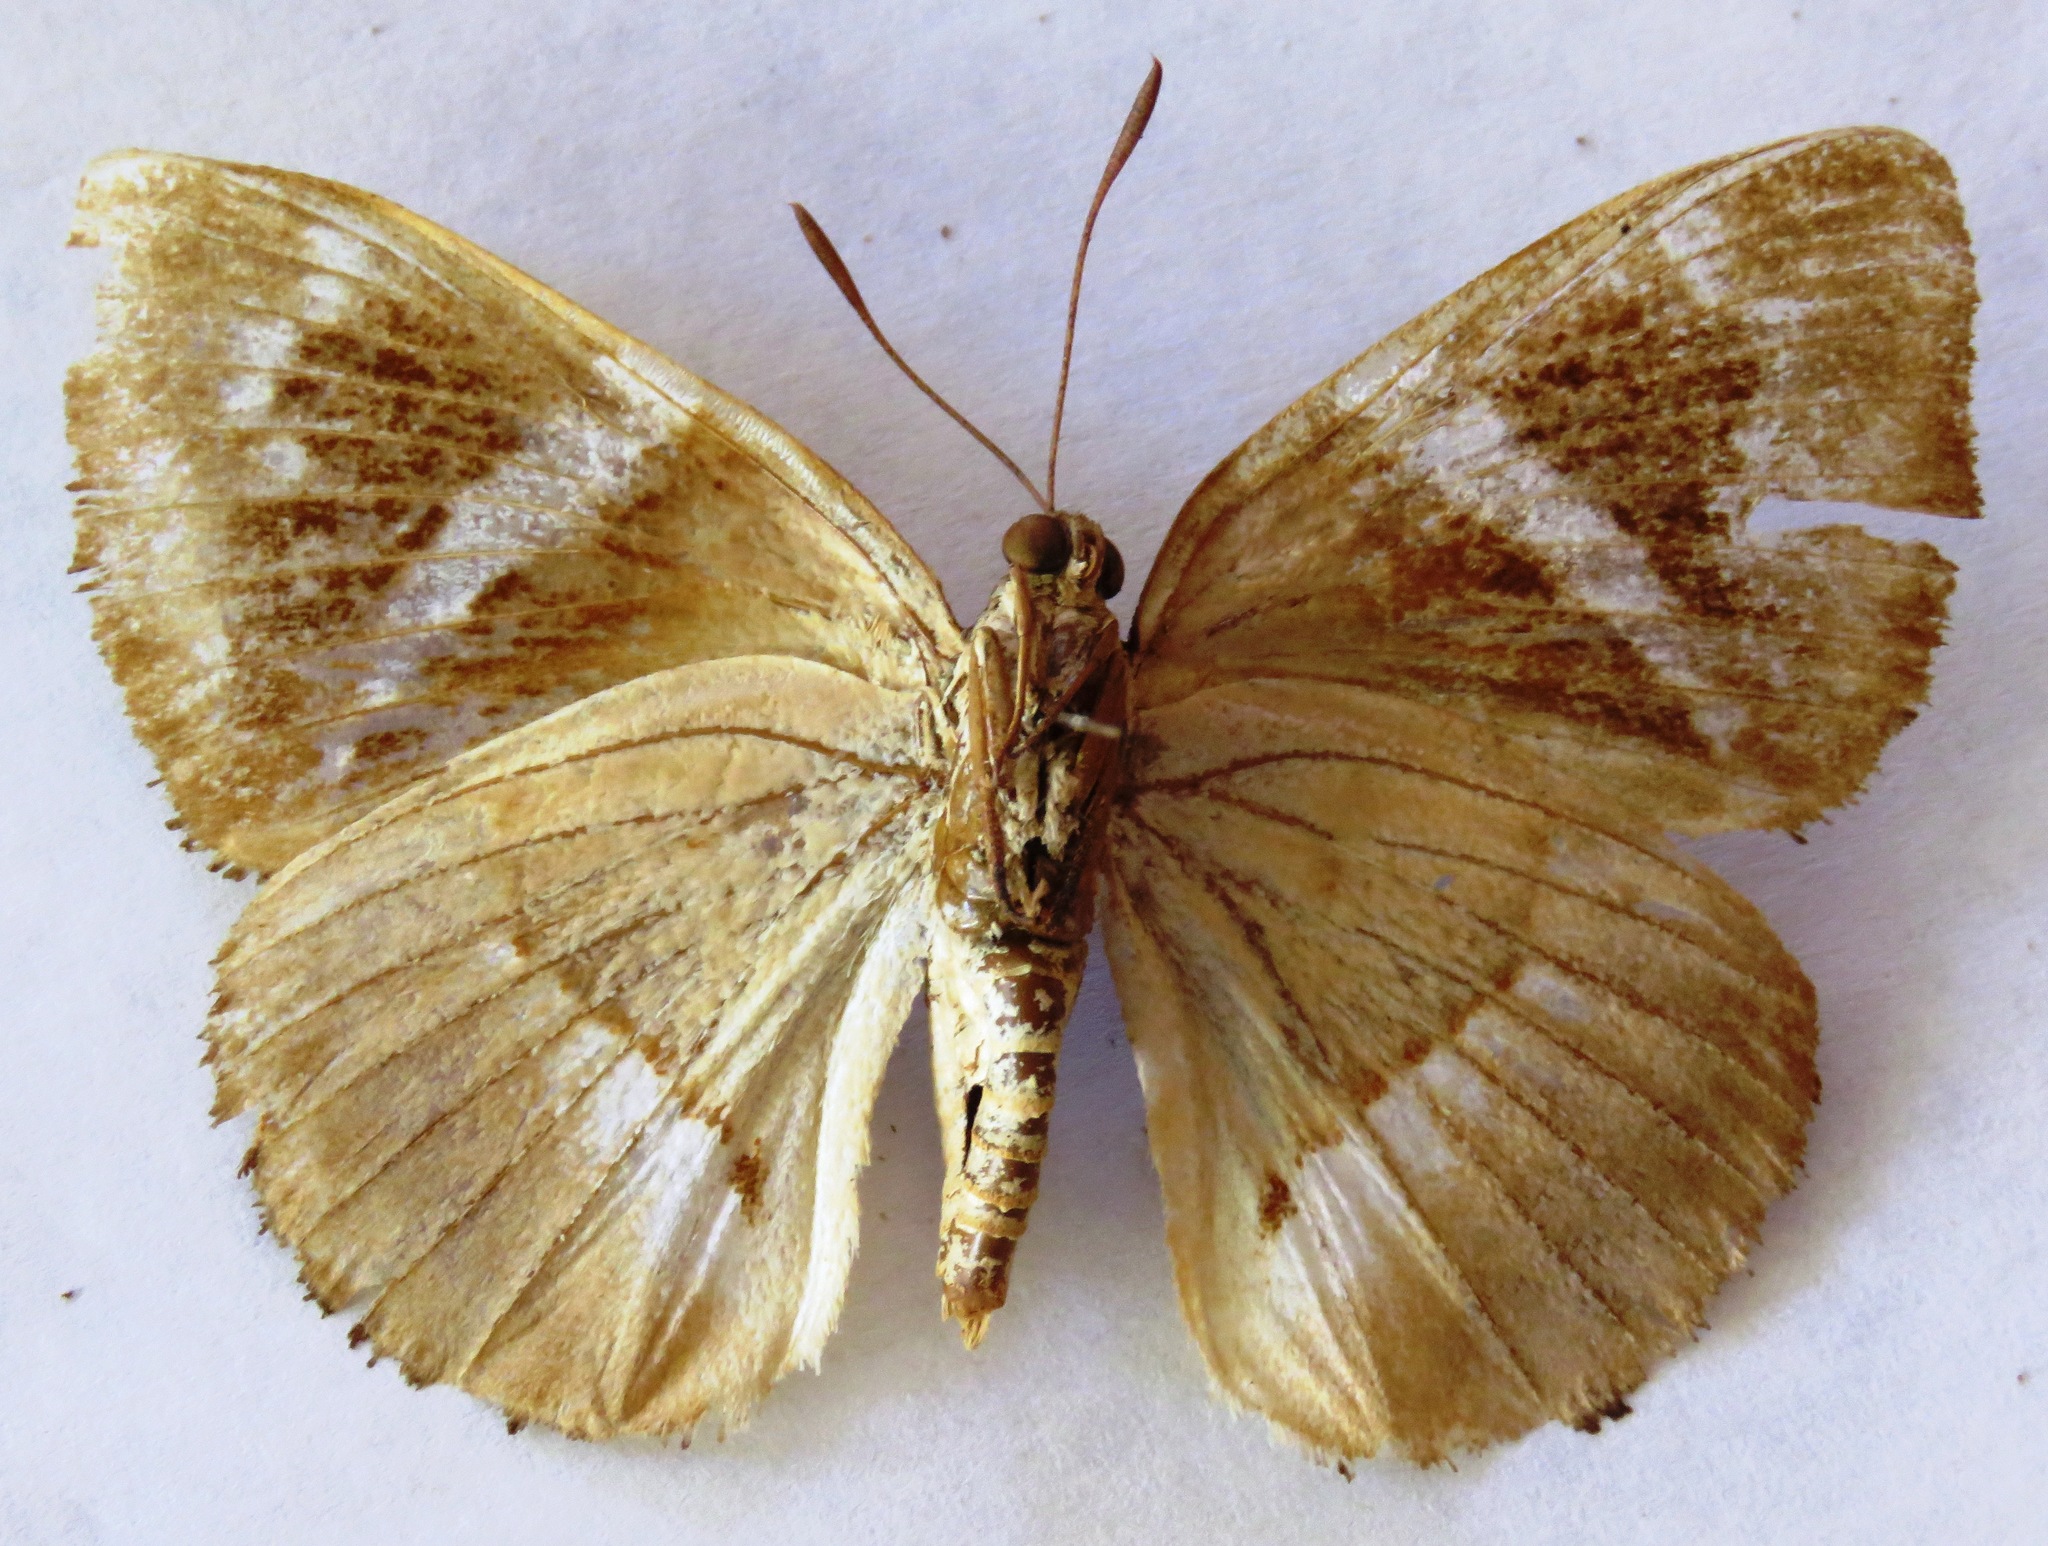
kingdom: Animalia
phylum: Arthropoda
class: Insecta
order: Lepidoptera
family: Castniidae
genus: Castniomera
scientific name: Castniomera atymnius
